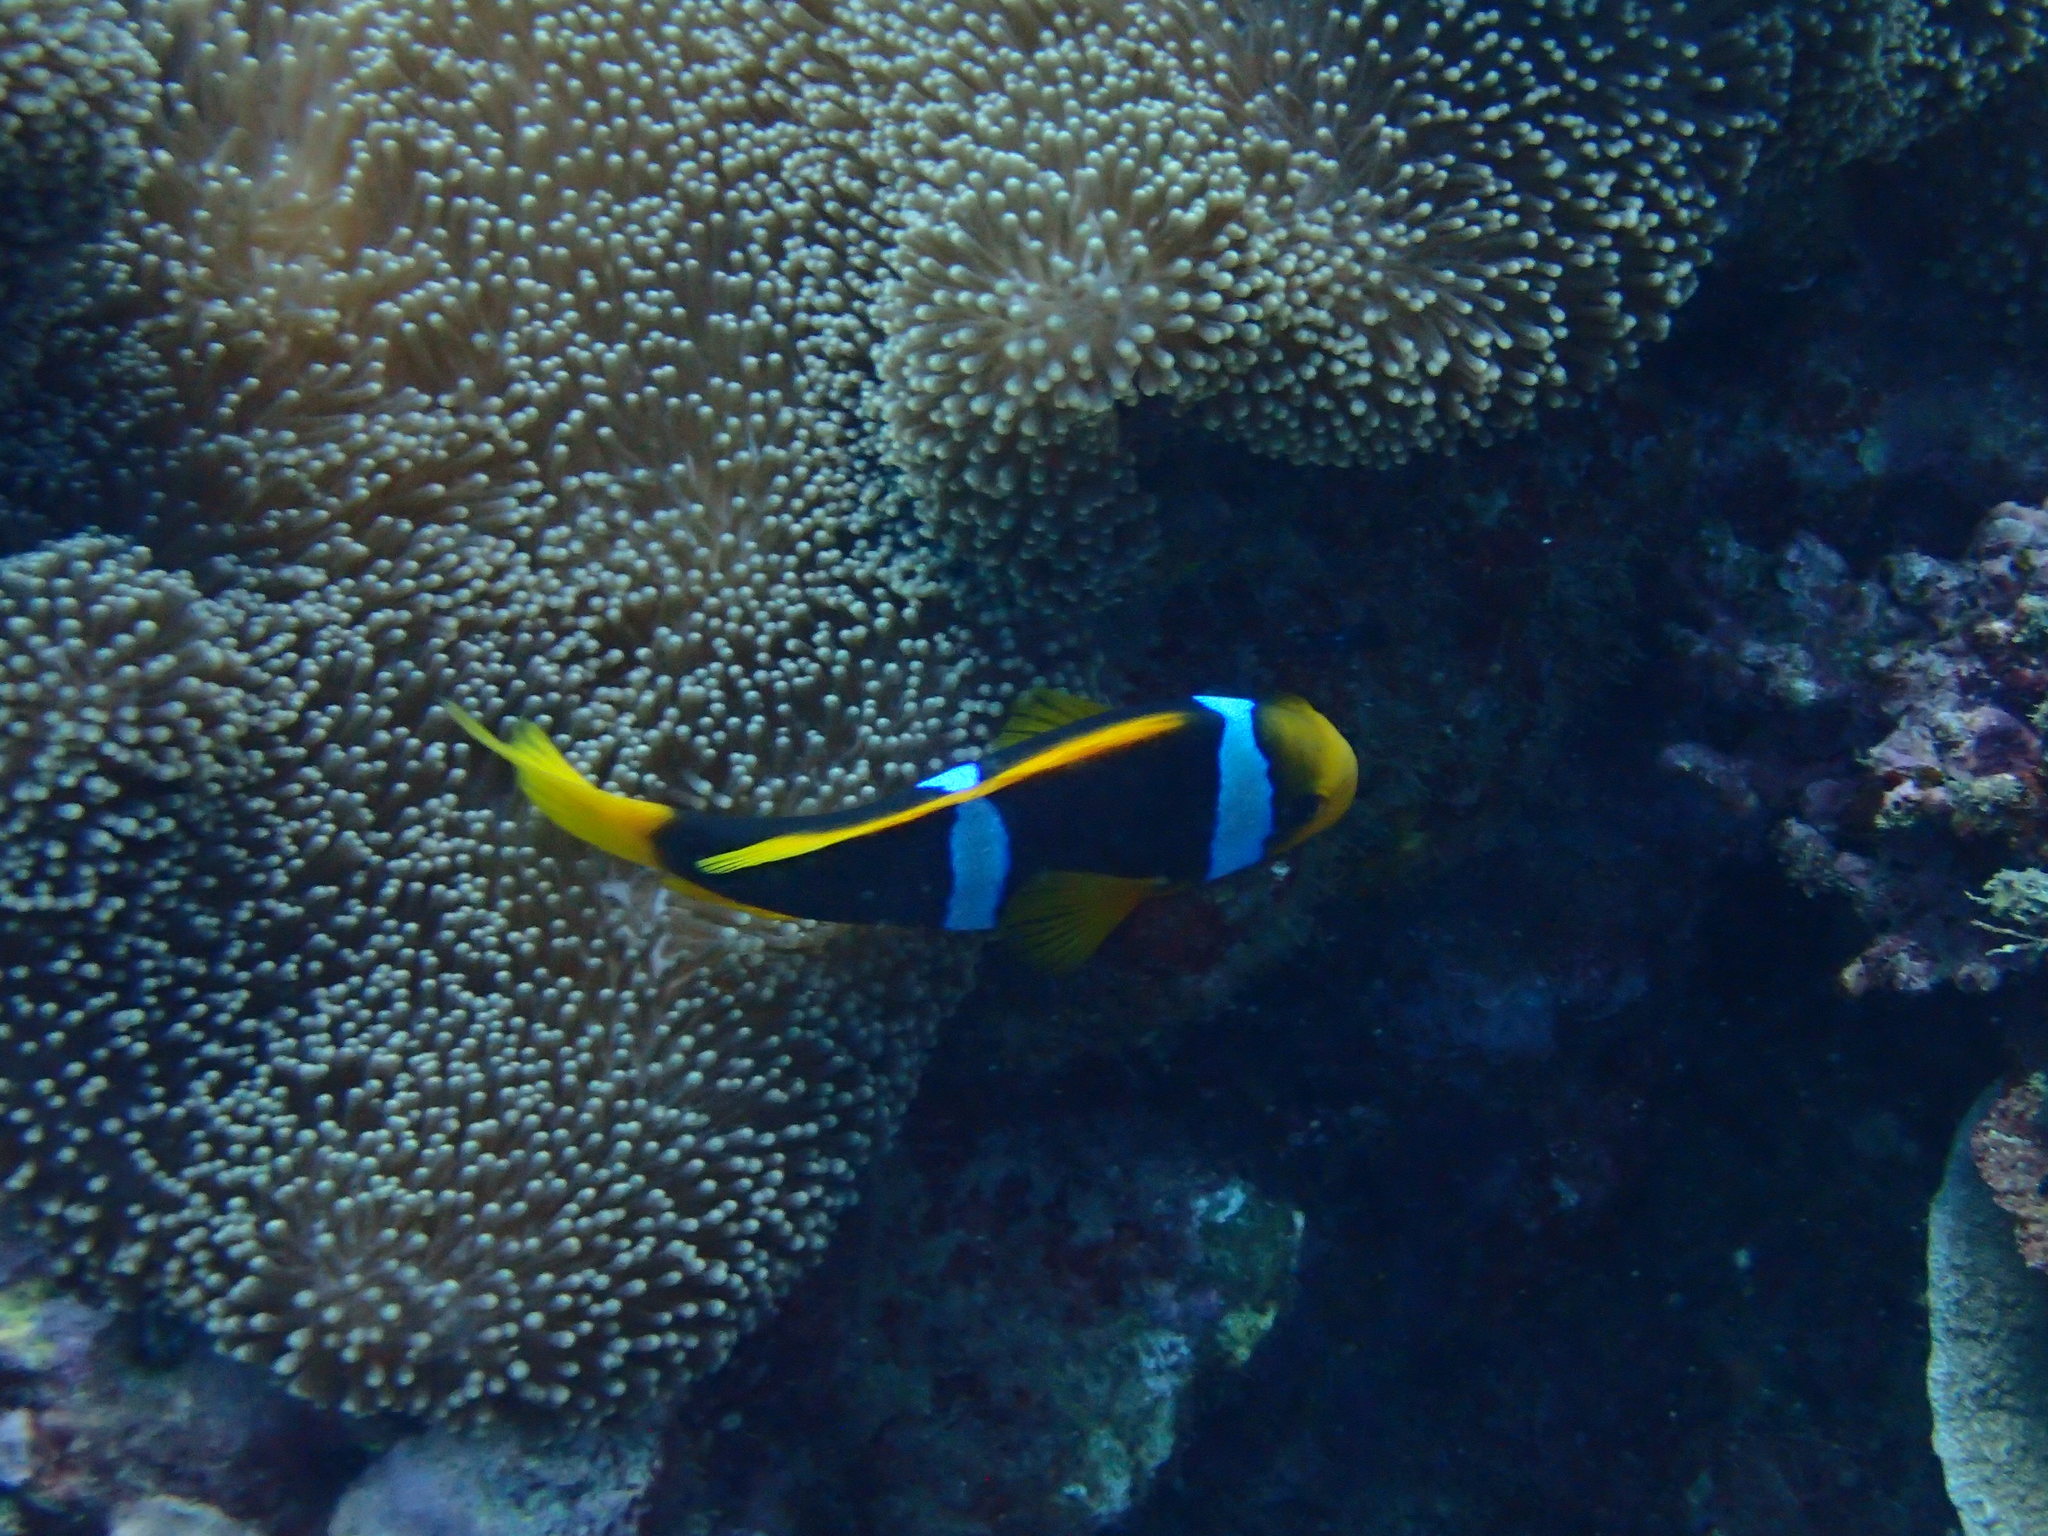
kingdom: Animalia
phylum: Chordata
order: Perciformes
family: Pomacentridae
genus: Amphiprion
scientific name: Amphiprion chrysopterus
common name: Orange-fin anemonefish
